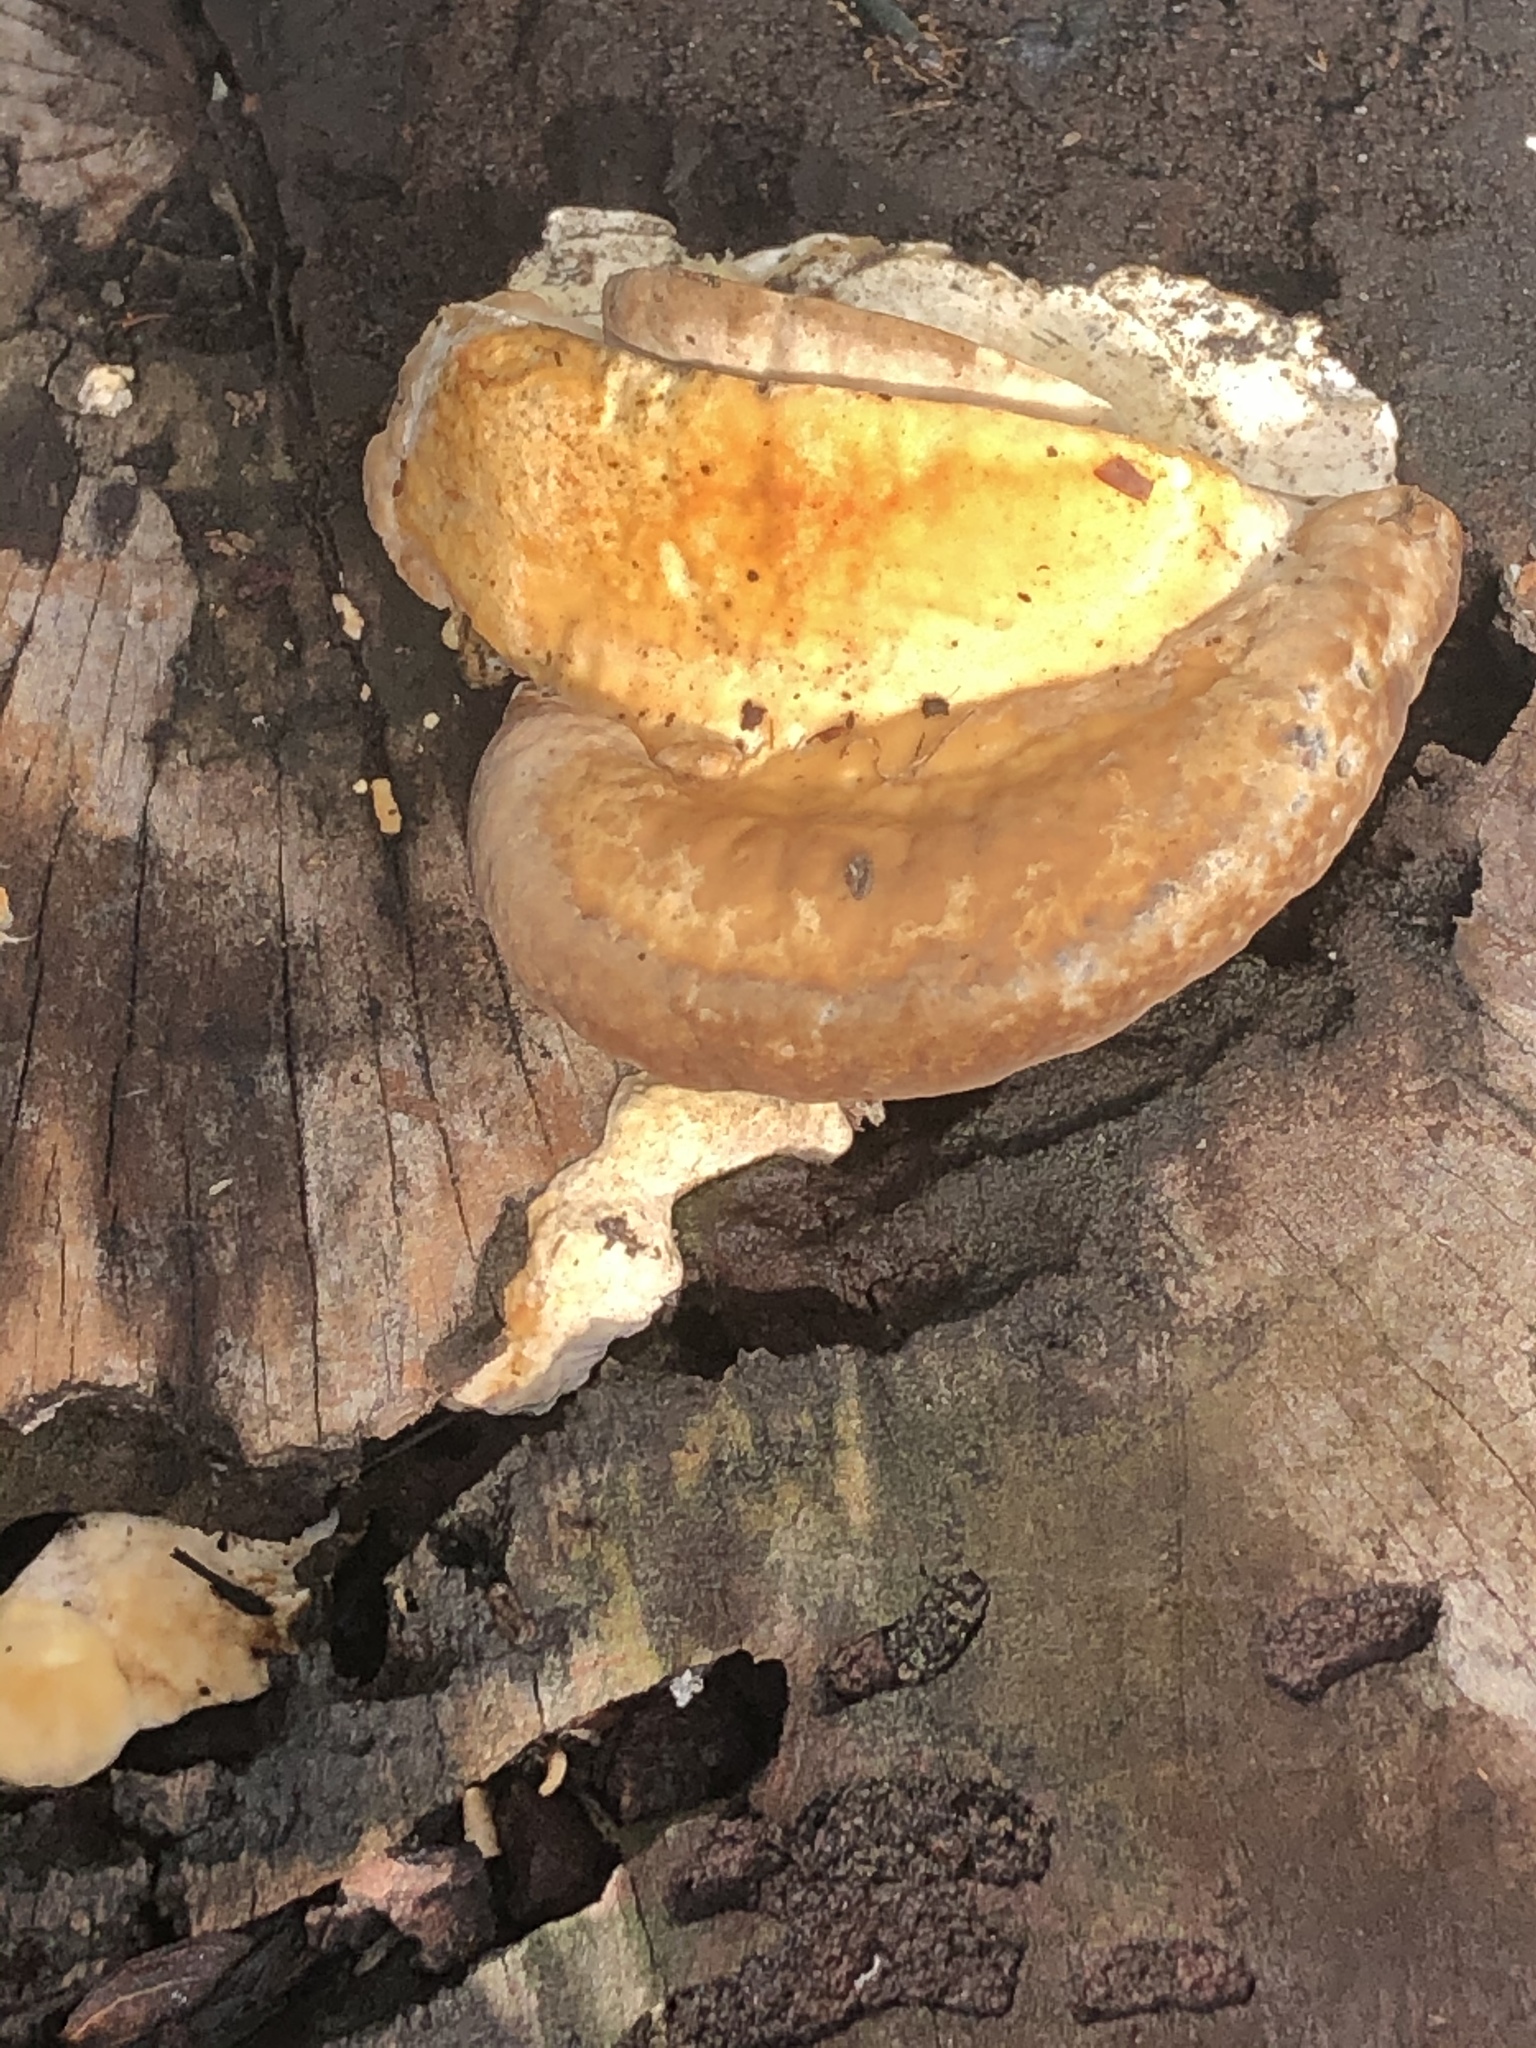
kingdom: Fungi
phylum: Basidiomycota
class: Agaricomycetes
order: Polyporales
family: Polyporaceae
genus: Trametes
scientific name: Trametes lactinea
